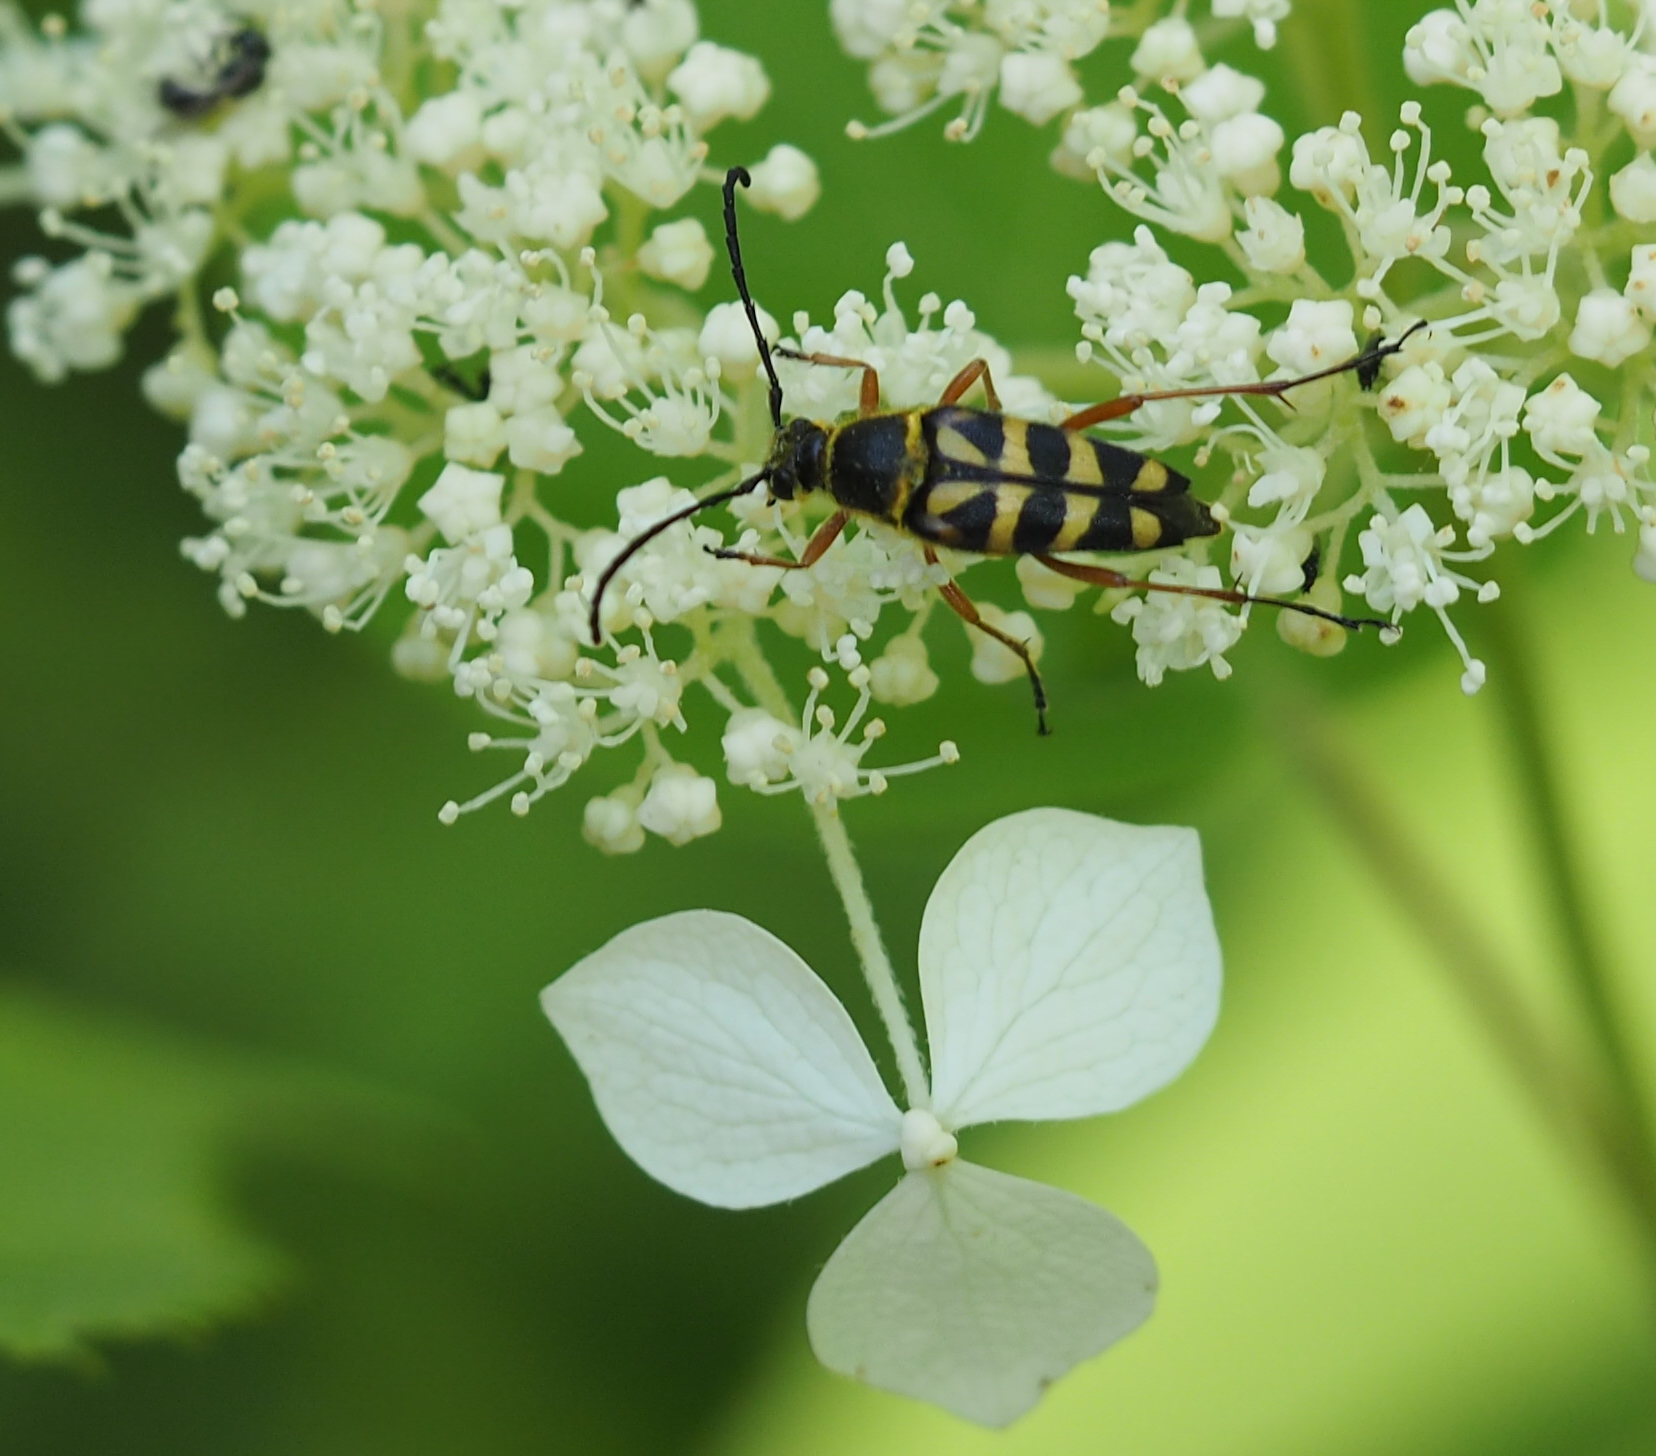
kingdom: Animalia
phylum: Arthropoda
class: Insecta
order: Coleoptera
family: Cerambycidae
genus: Typocerus
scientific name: Typocerus zebra
